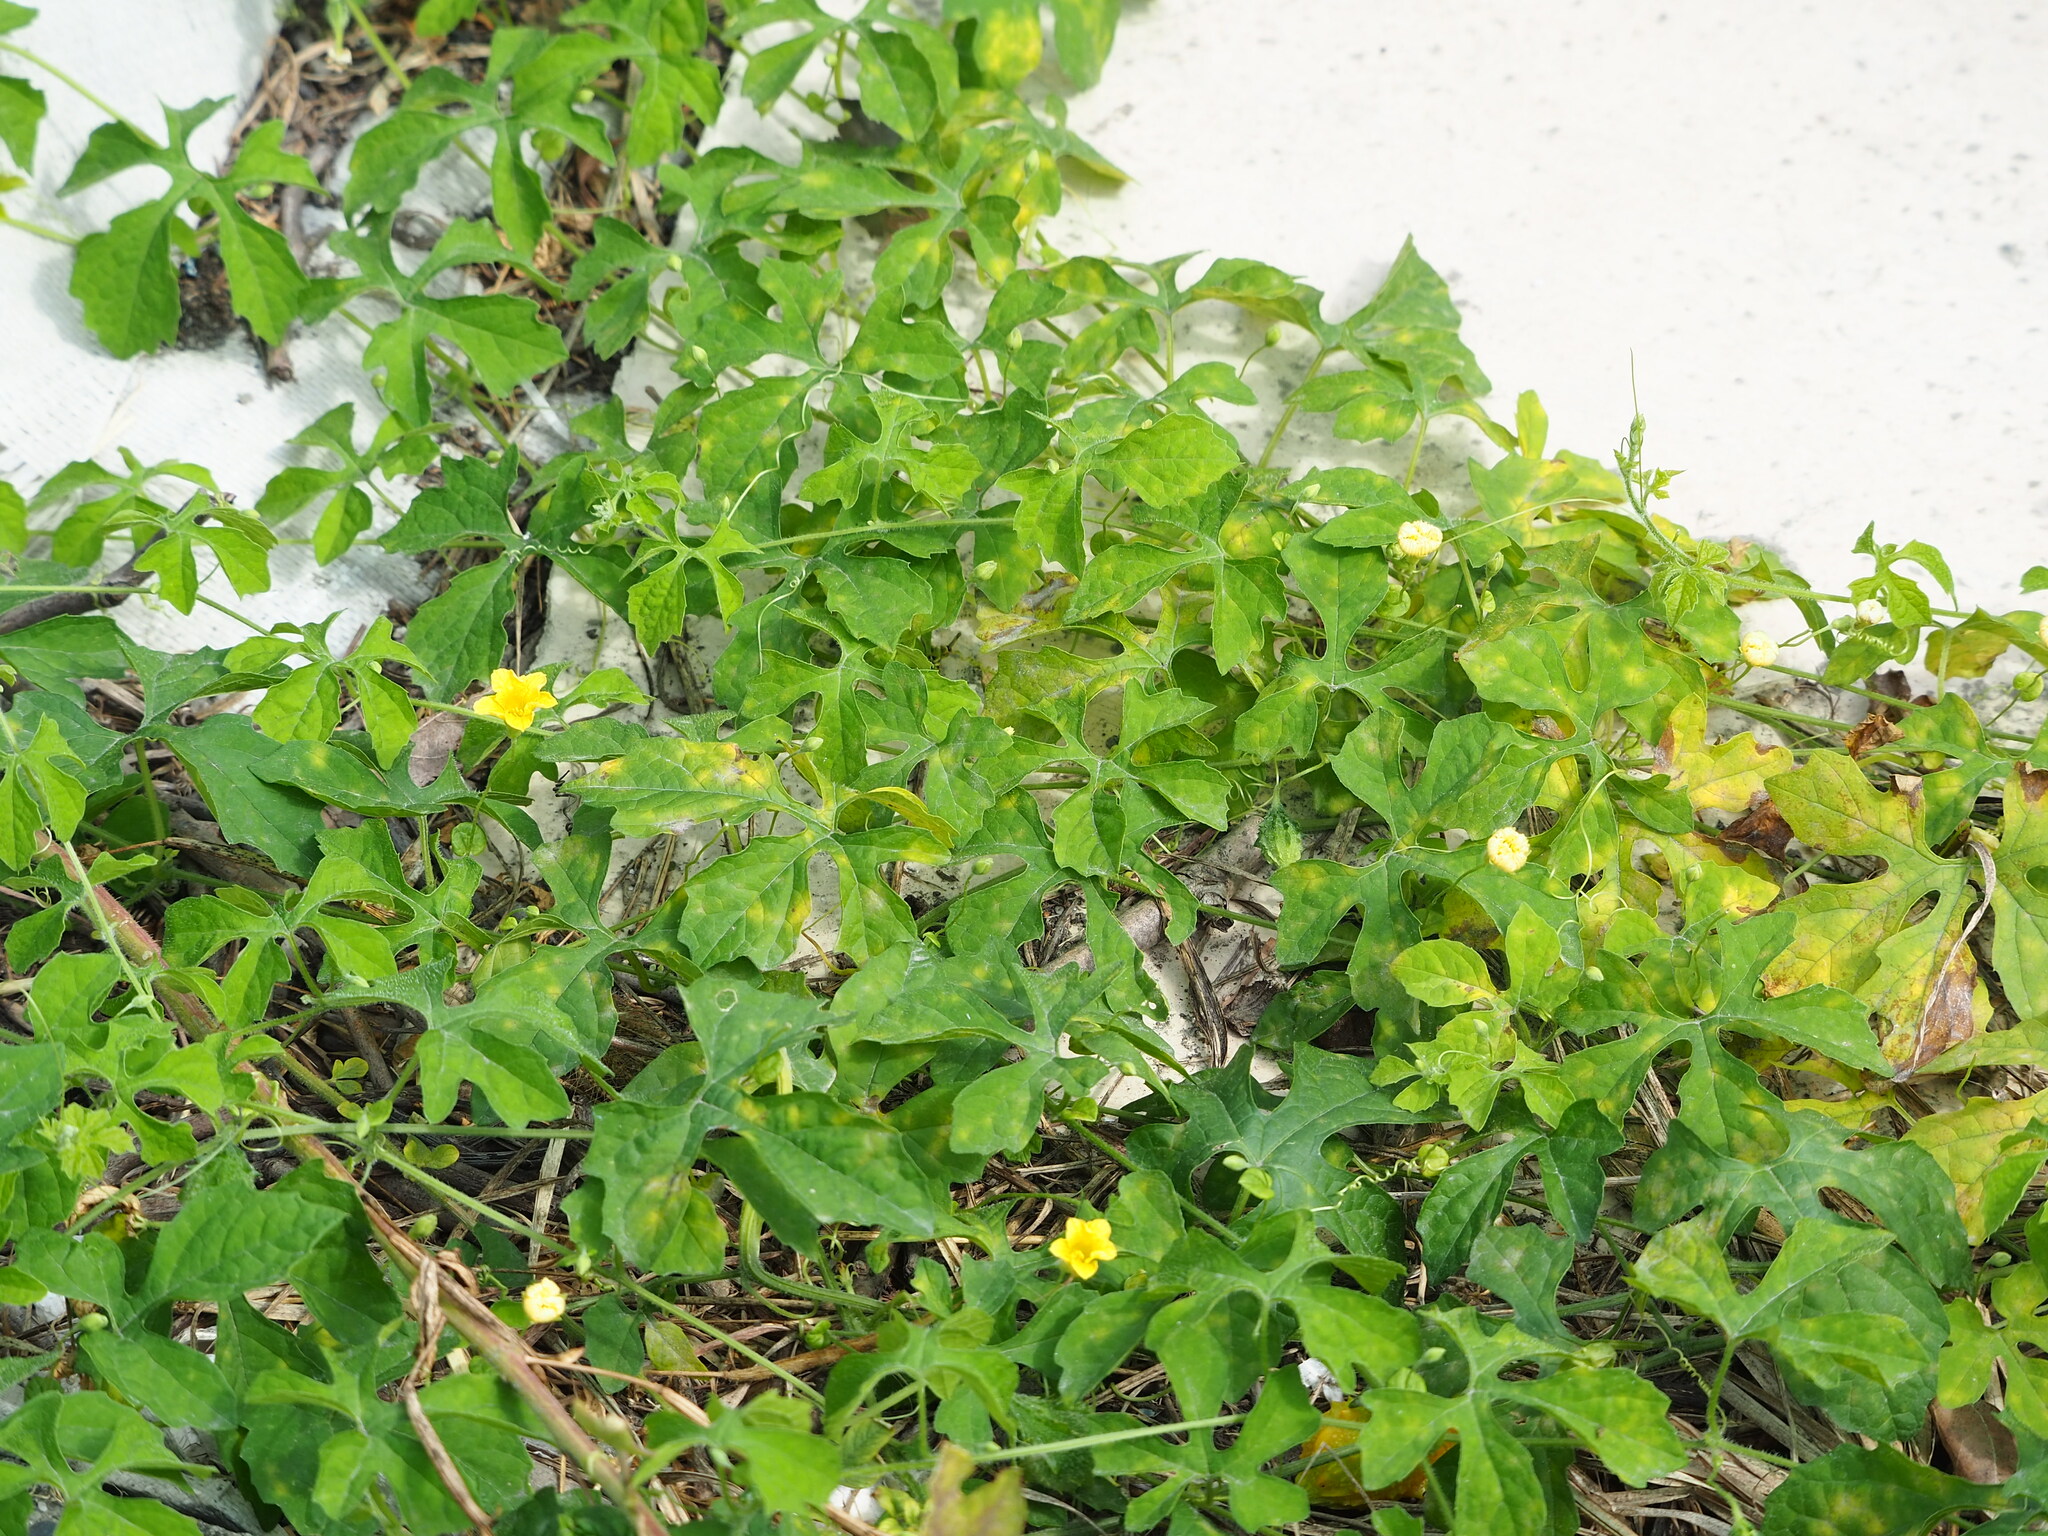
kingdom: Plantae
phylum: Tracheophyta
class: Magnoliopsida
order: Cucurbitales
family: Cucurbitaceae
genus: Momordica
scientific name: Momordica charantia
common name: Balsampear
